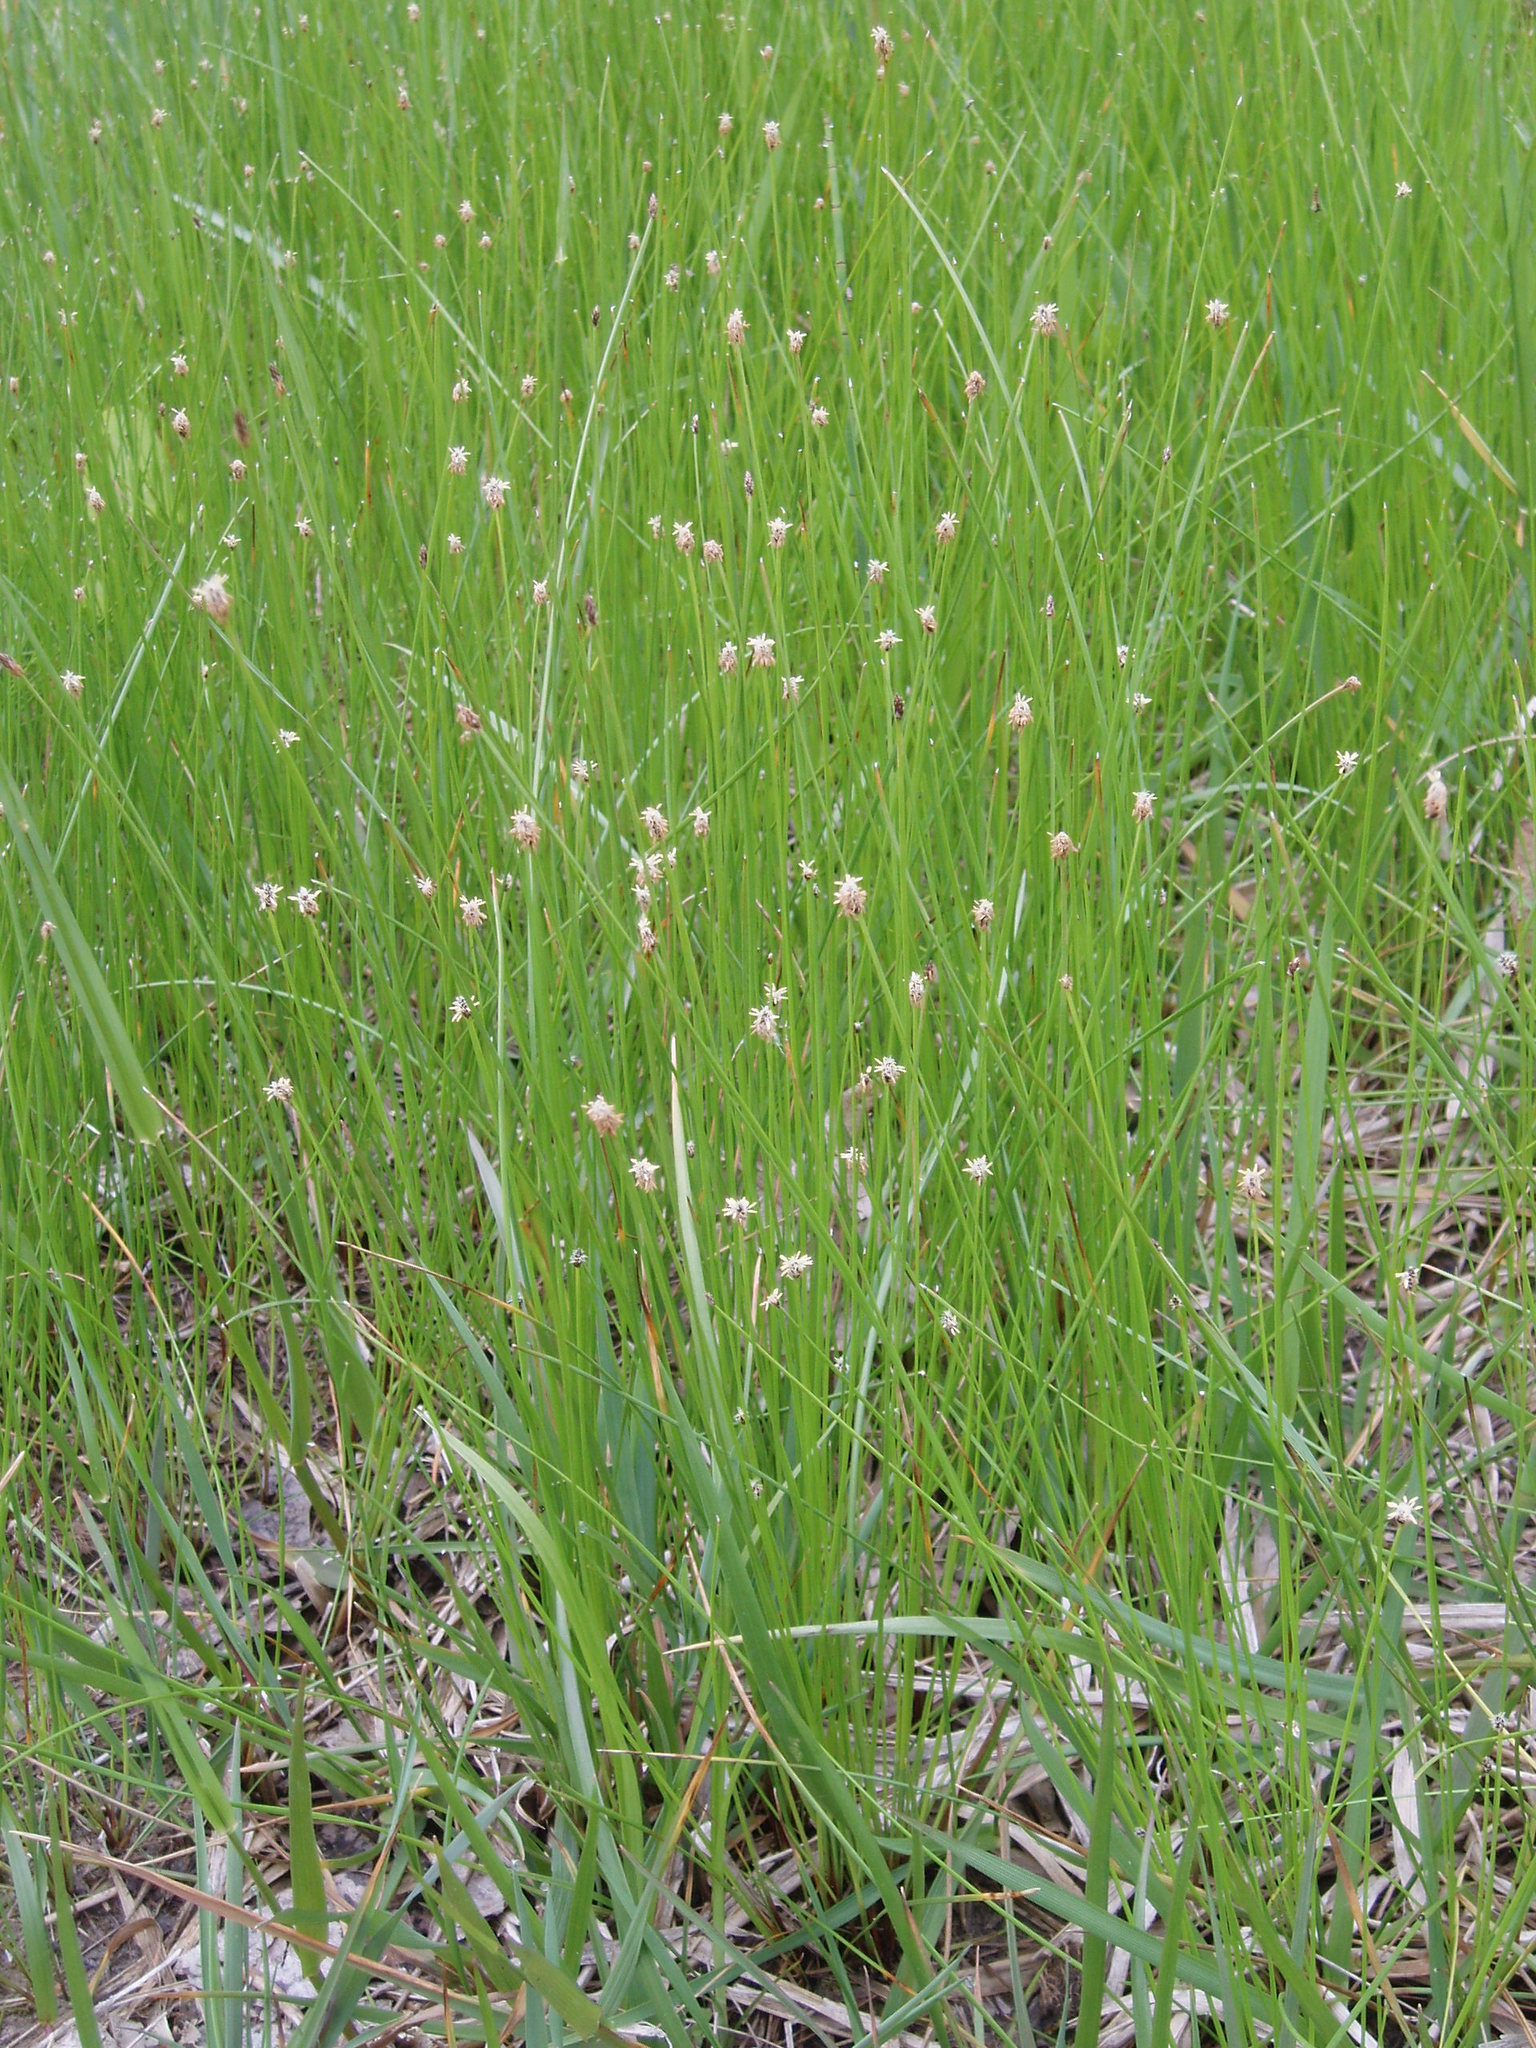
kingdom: Plantae
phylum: Tracheophyta
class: Liliopsida
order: Poales
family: Cyperaceae
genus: Eleocharis
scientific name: Eleocharis compressa
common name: Flat-stem spike-rush
